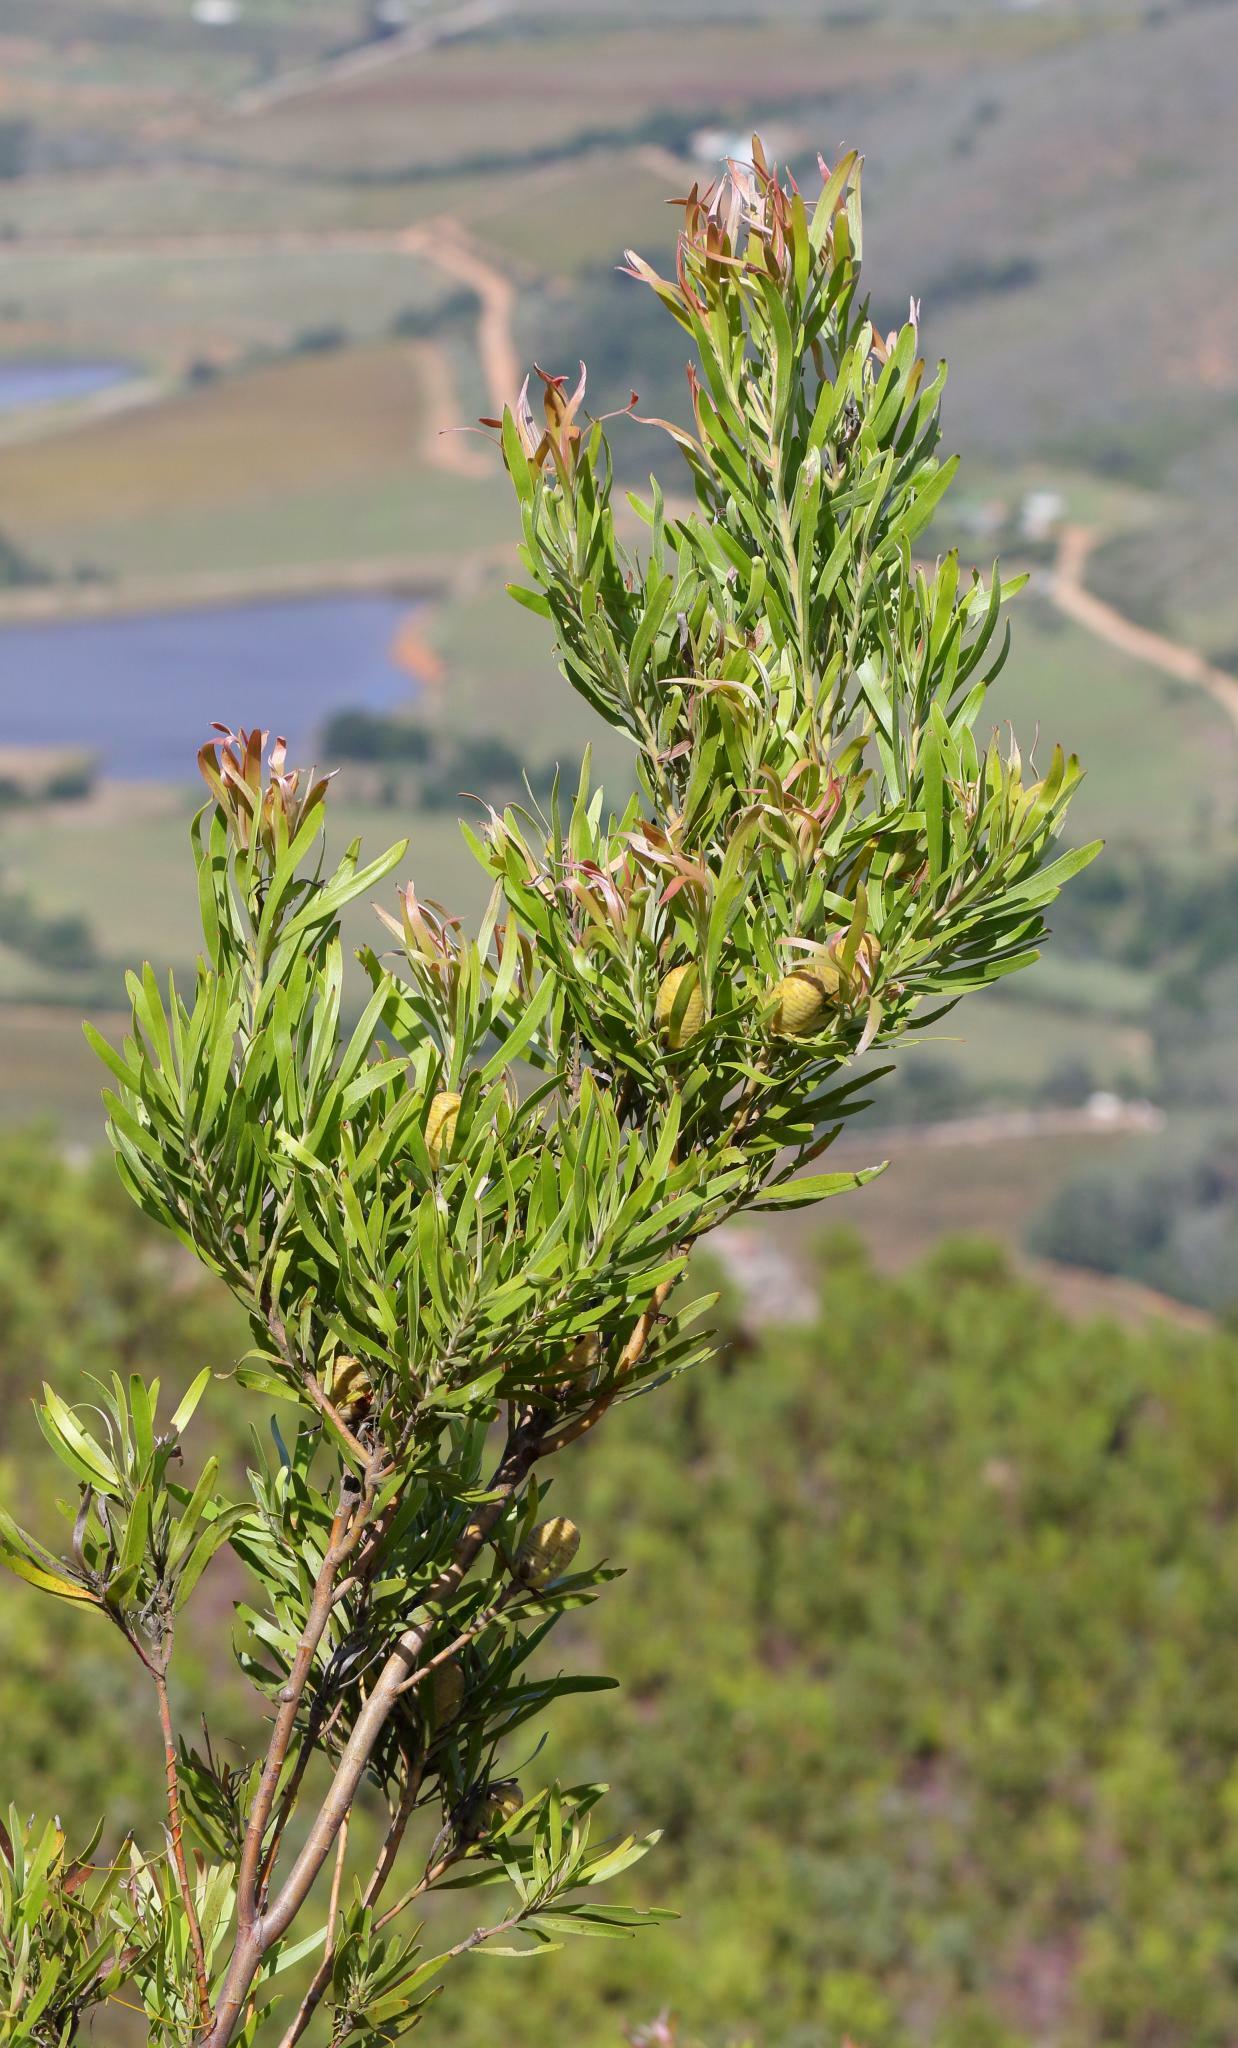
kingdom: Plantae
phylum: Tracheophyta
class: Magnoliopsida
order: Proteales
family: Proteaceae
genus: Leucadendron
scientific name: Leucadendron eucalyptifolium
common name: Gum-leaved conebush
